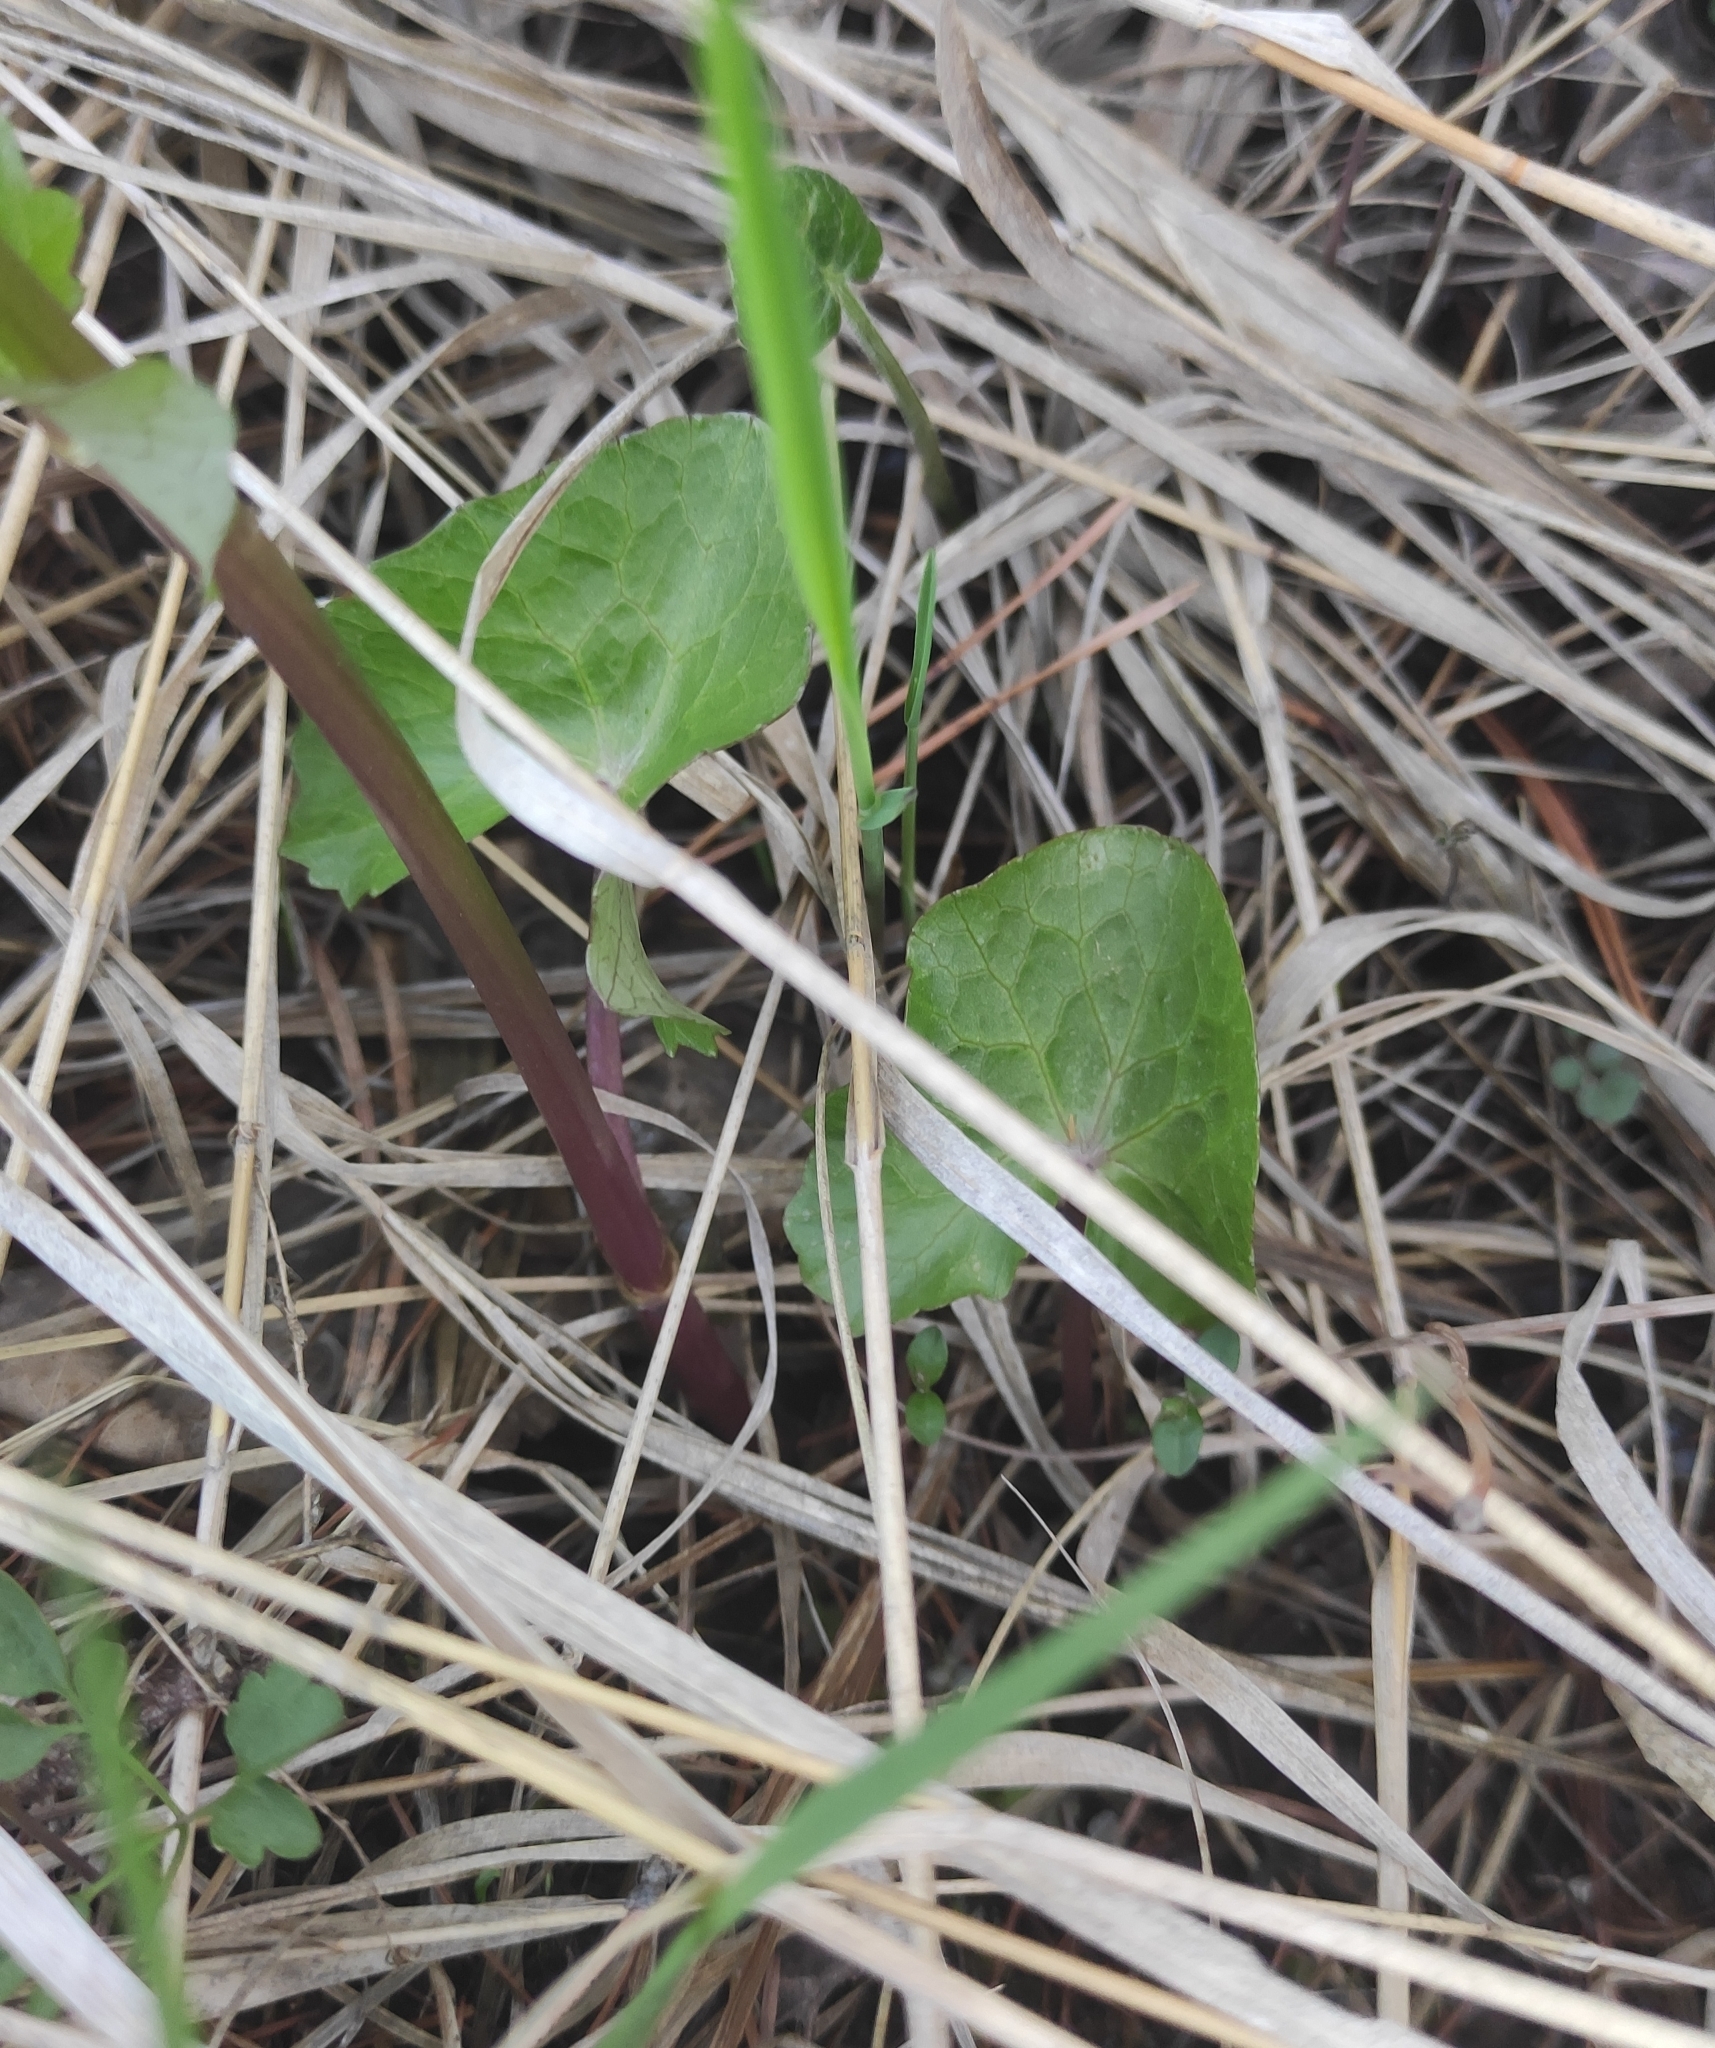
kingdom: Plantae
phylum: Tracheophyta
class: Magnoliopsida
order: Ranunculales
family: Ranunculaceae
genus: Caltha
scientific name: Caltha palustris
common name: Marsh marigold
